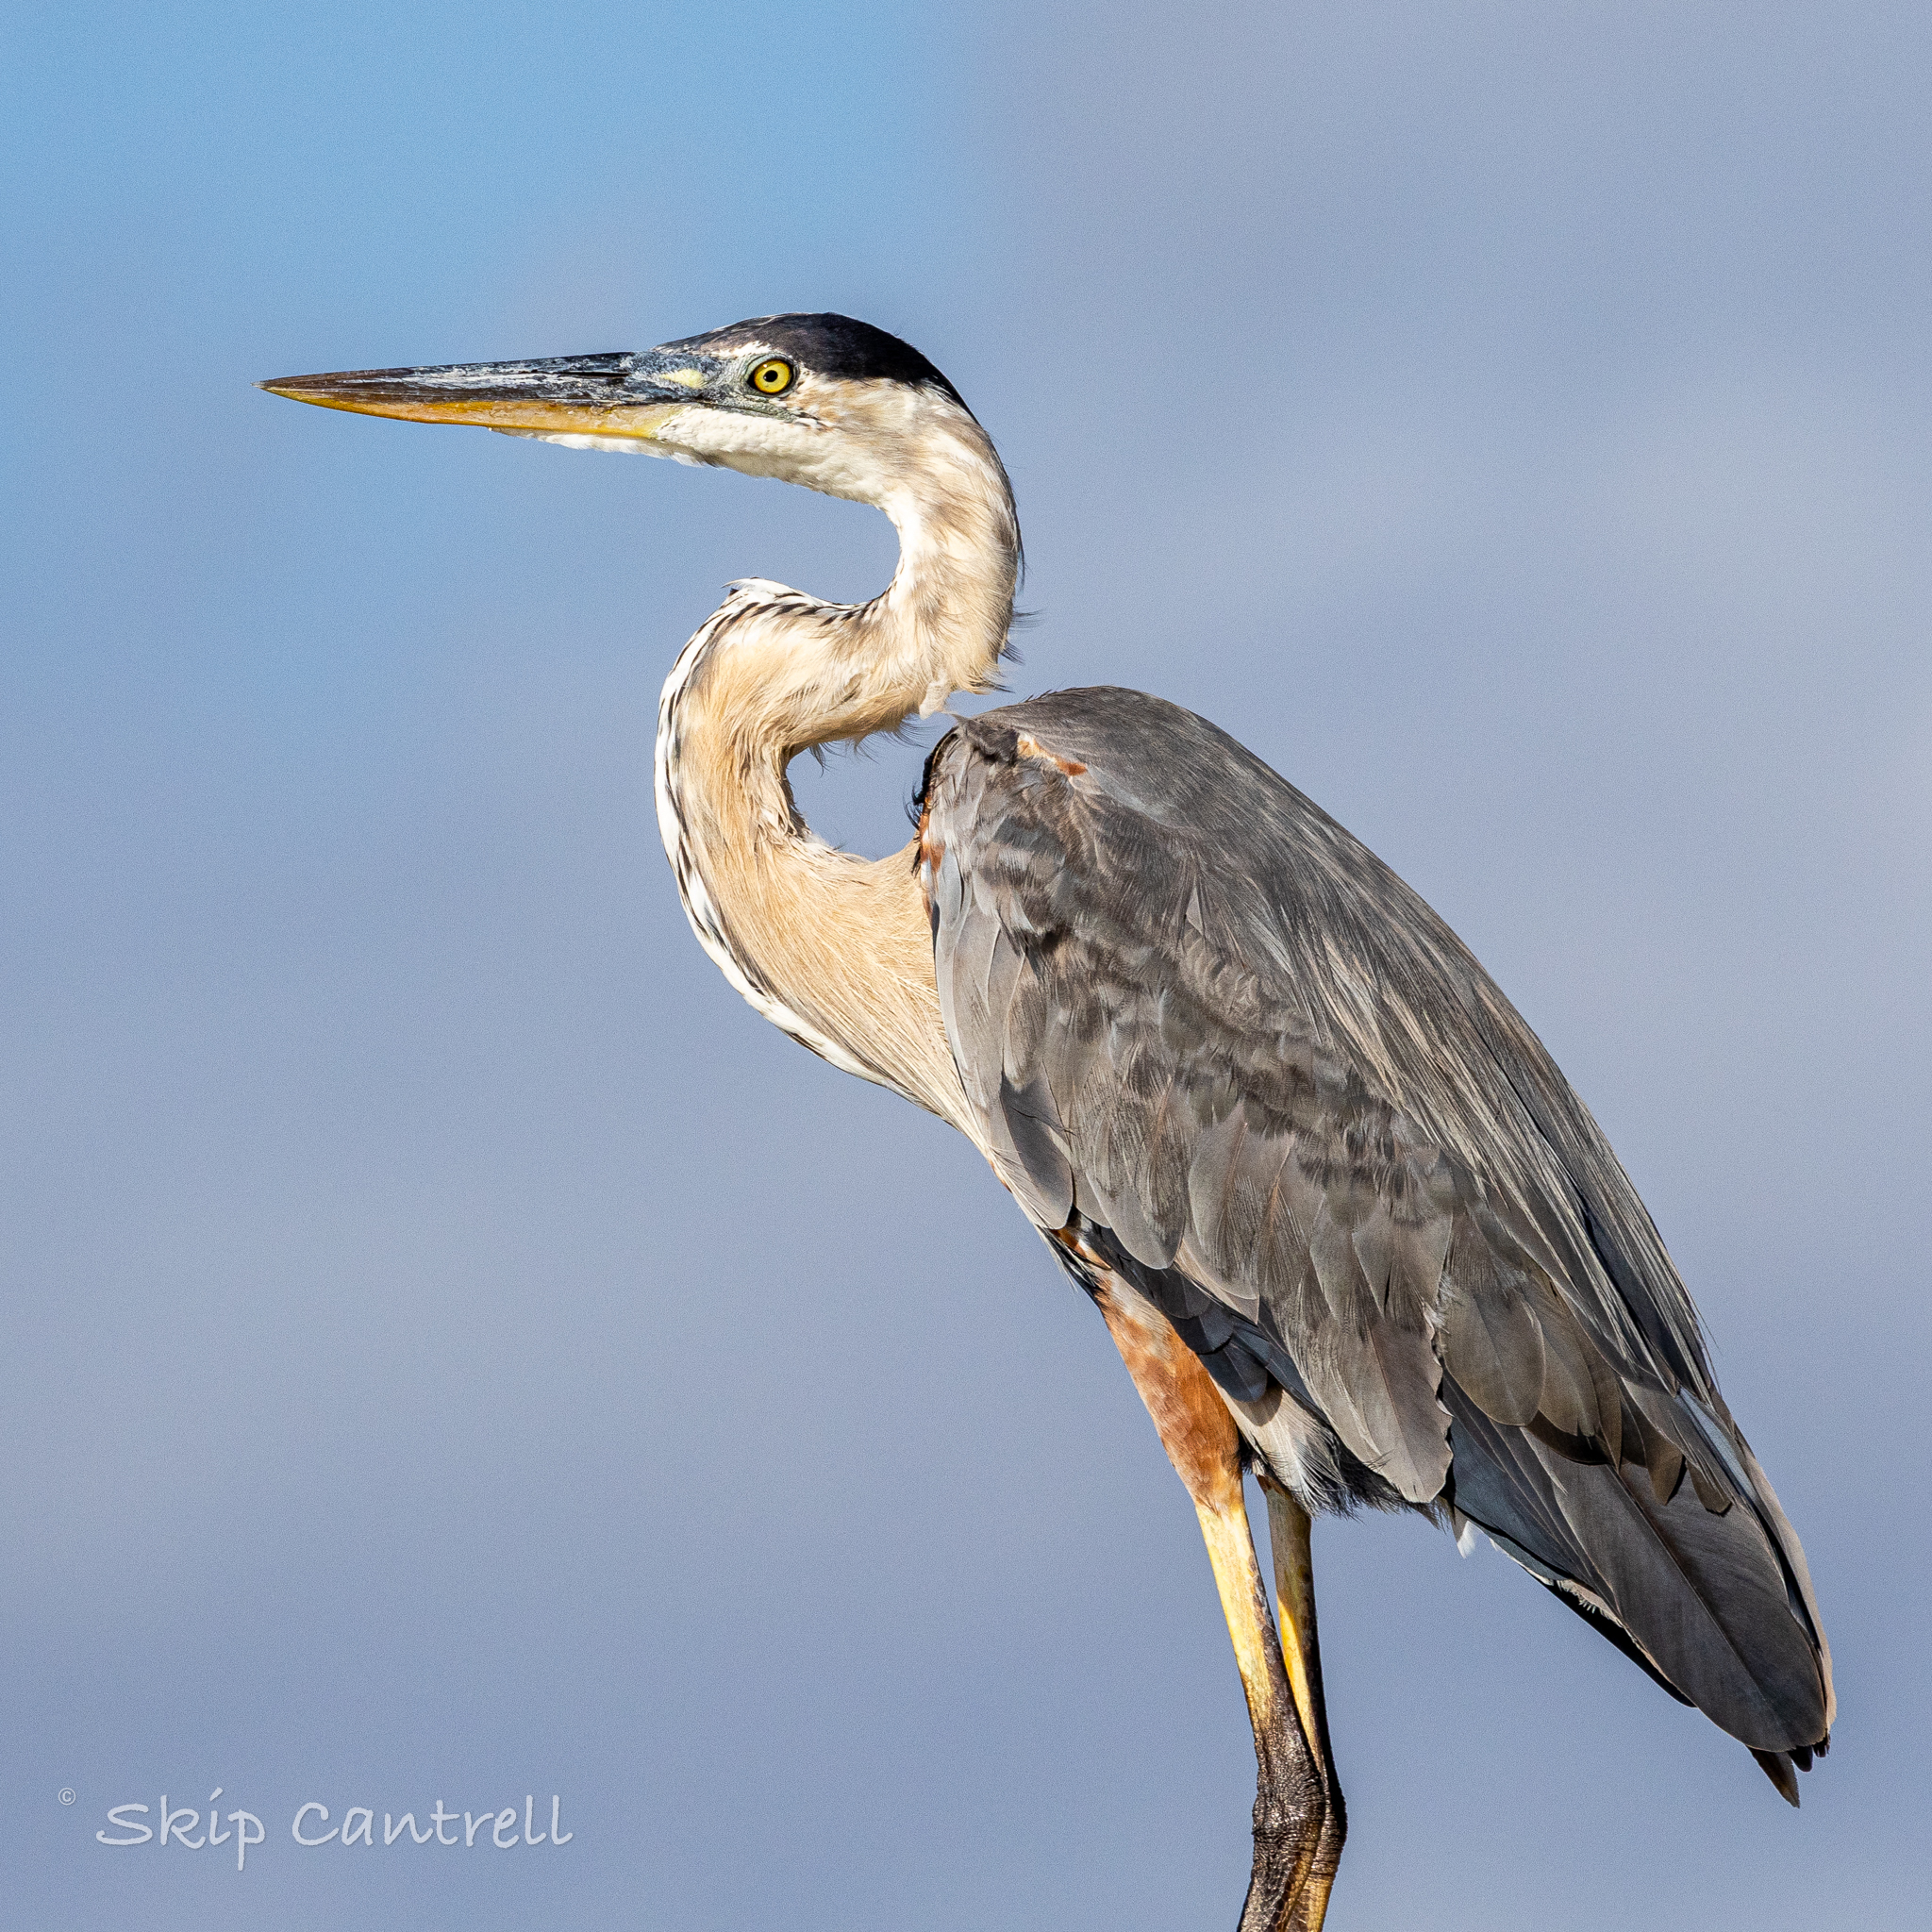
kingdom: Animalia
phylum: Chordata
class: Aves
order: Pelecaniformes
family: Ardeidae
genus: Ardea
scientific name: Ardea herodias
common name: Great blue heron
